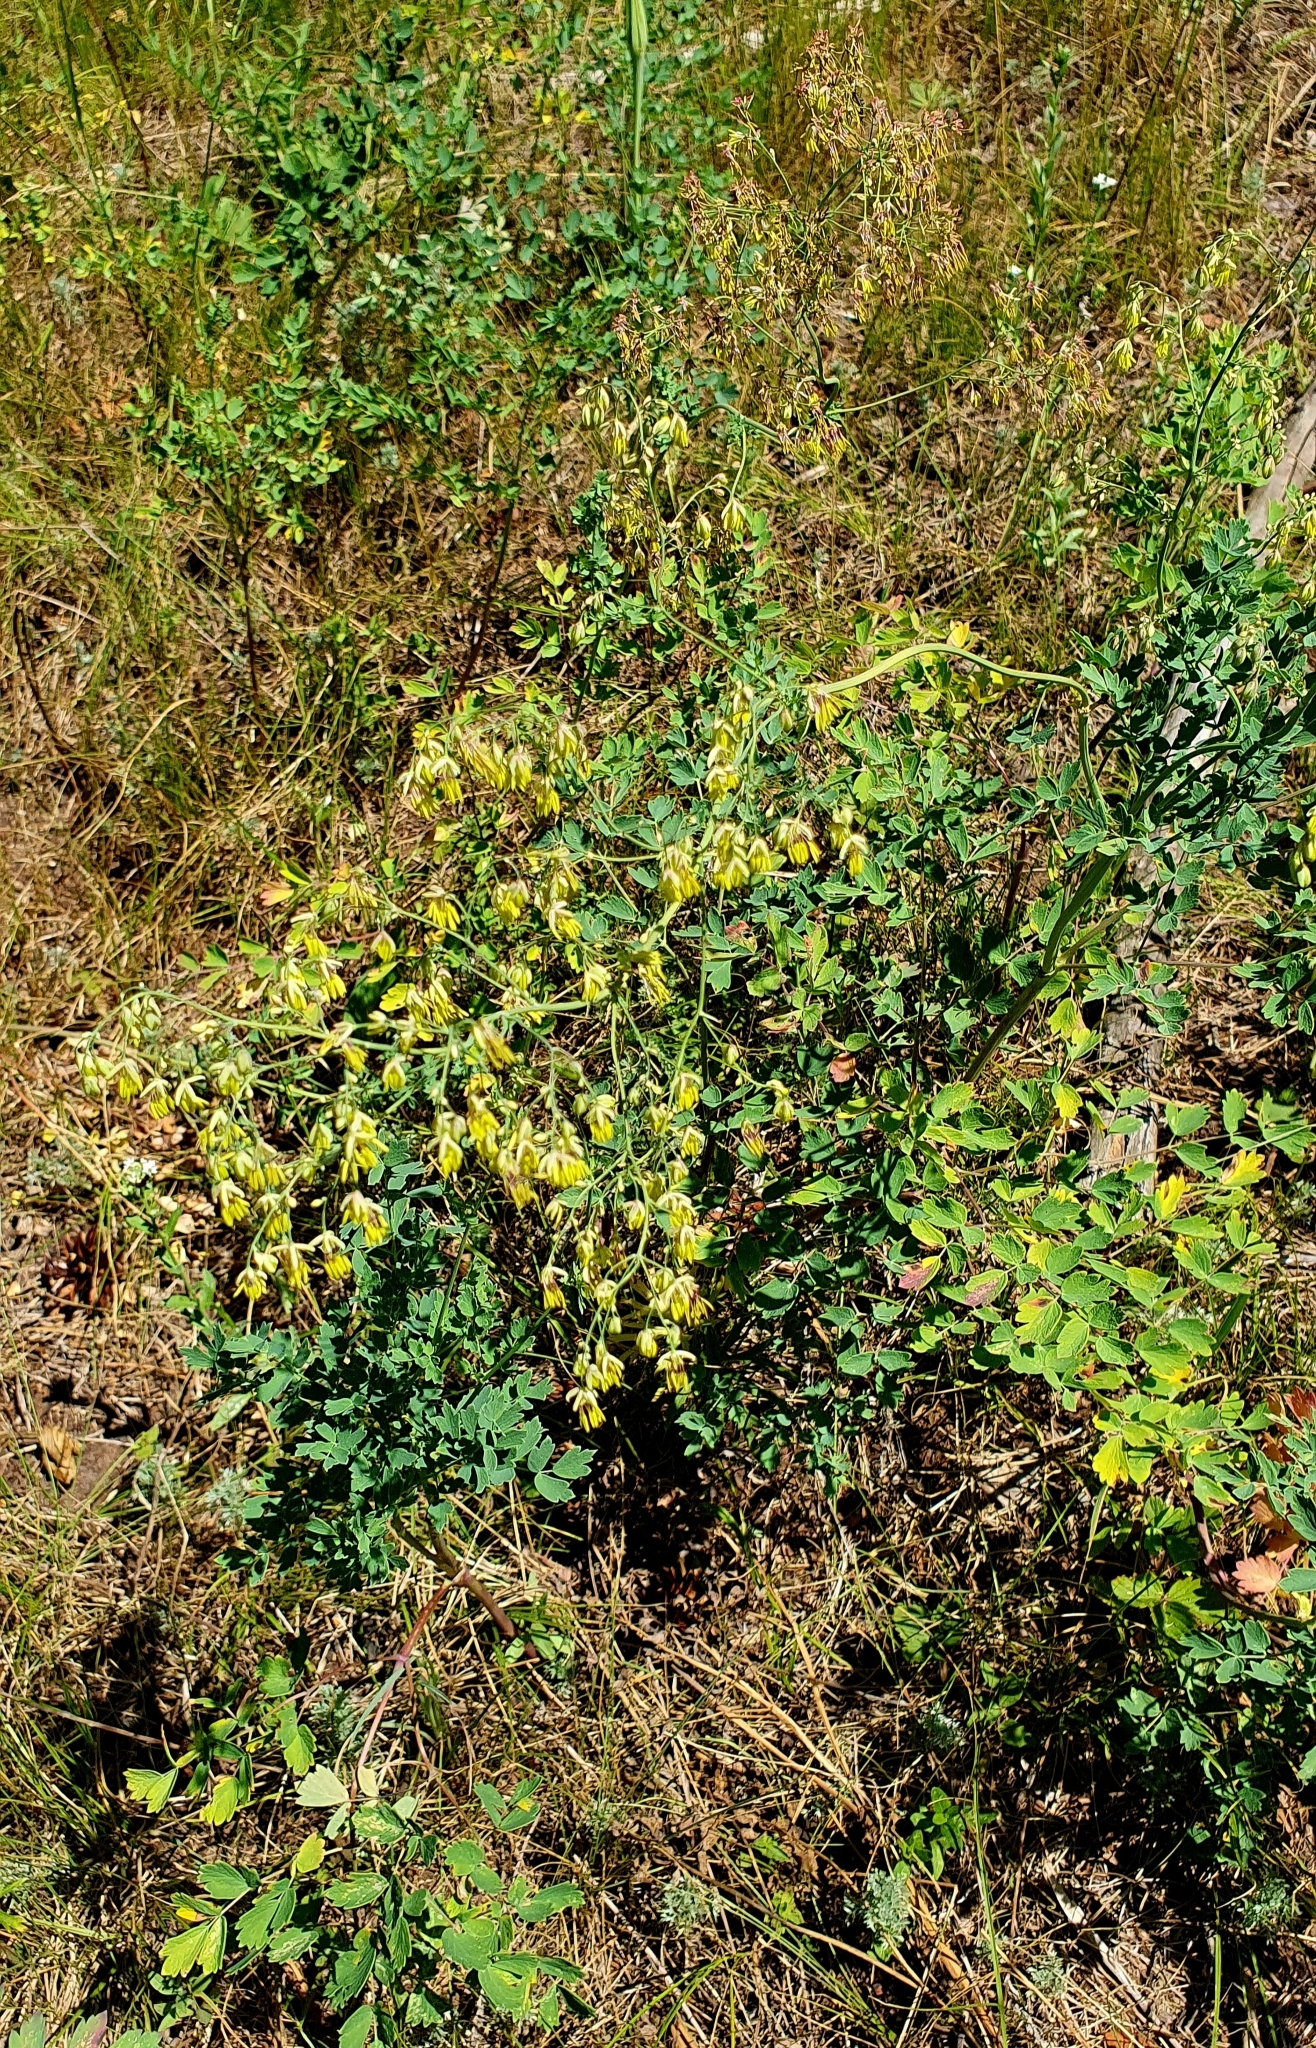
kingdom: Plantae
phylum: Tracheophyta
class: Magnoliopsida
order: Ranunculales
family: Ranunculaceae
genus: Thalictrum
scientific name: Thalictrum minus
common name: Lesser meadow-rue
